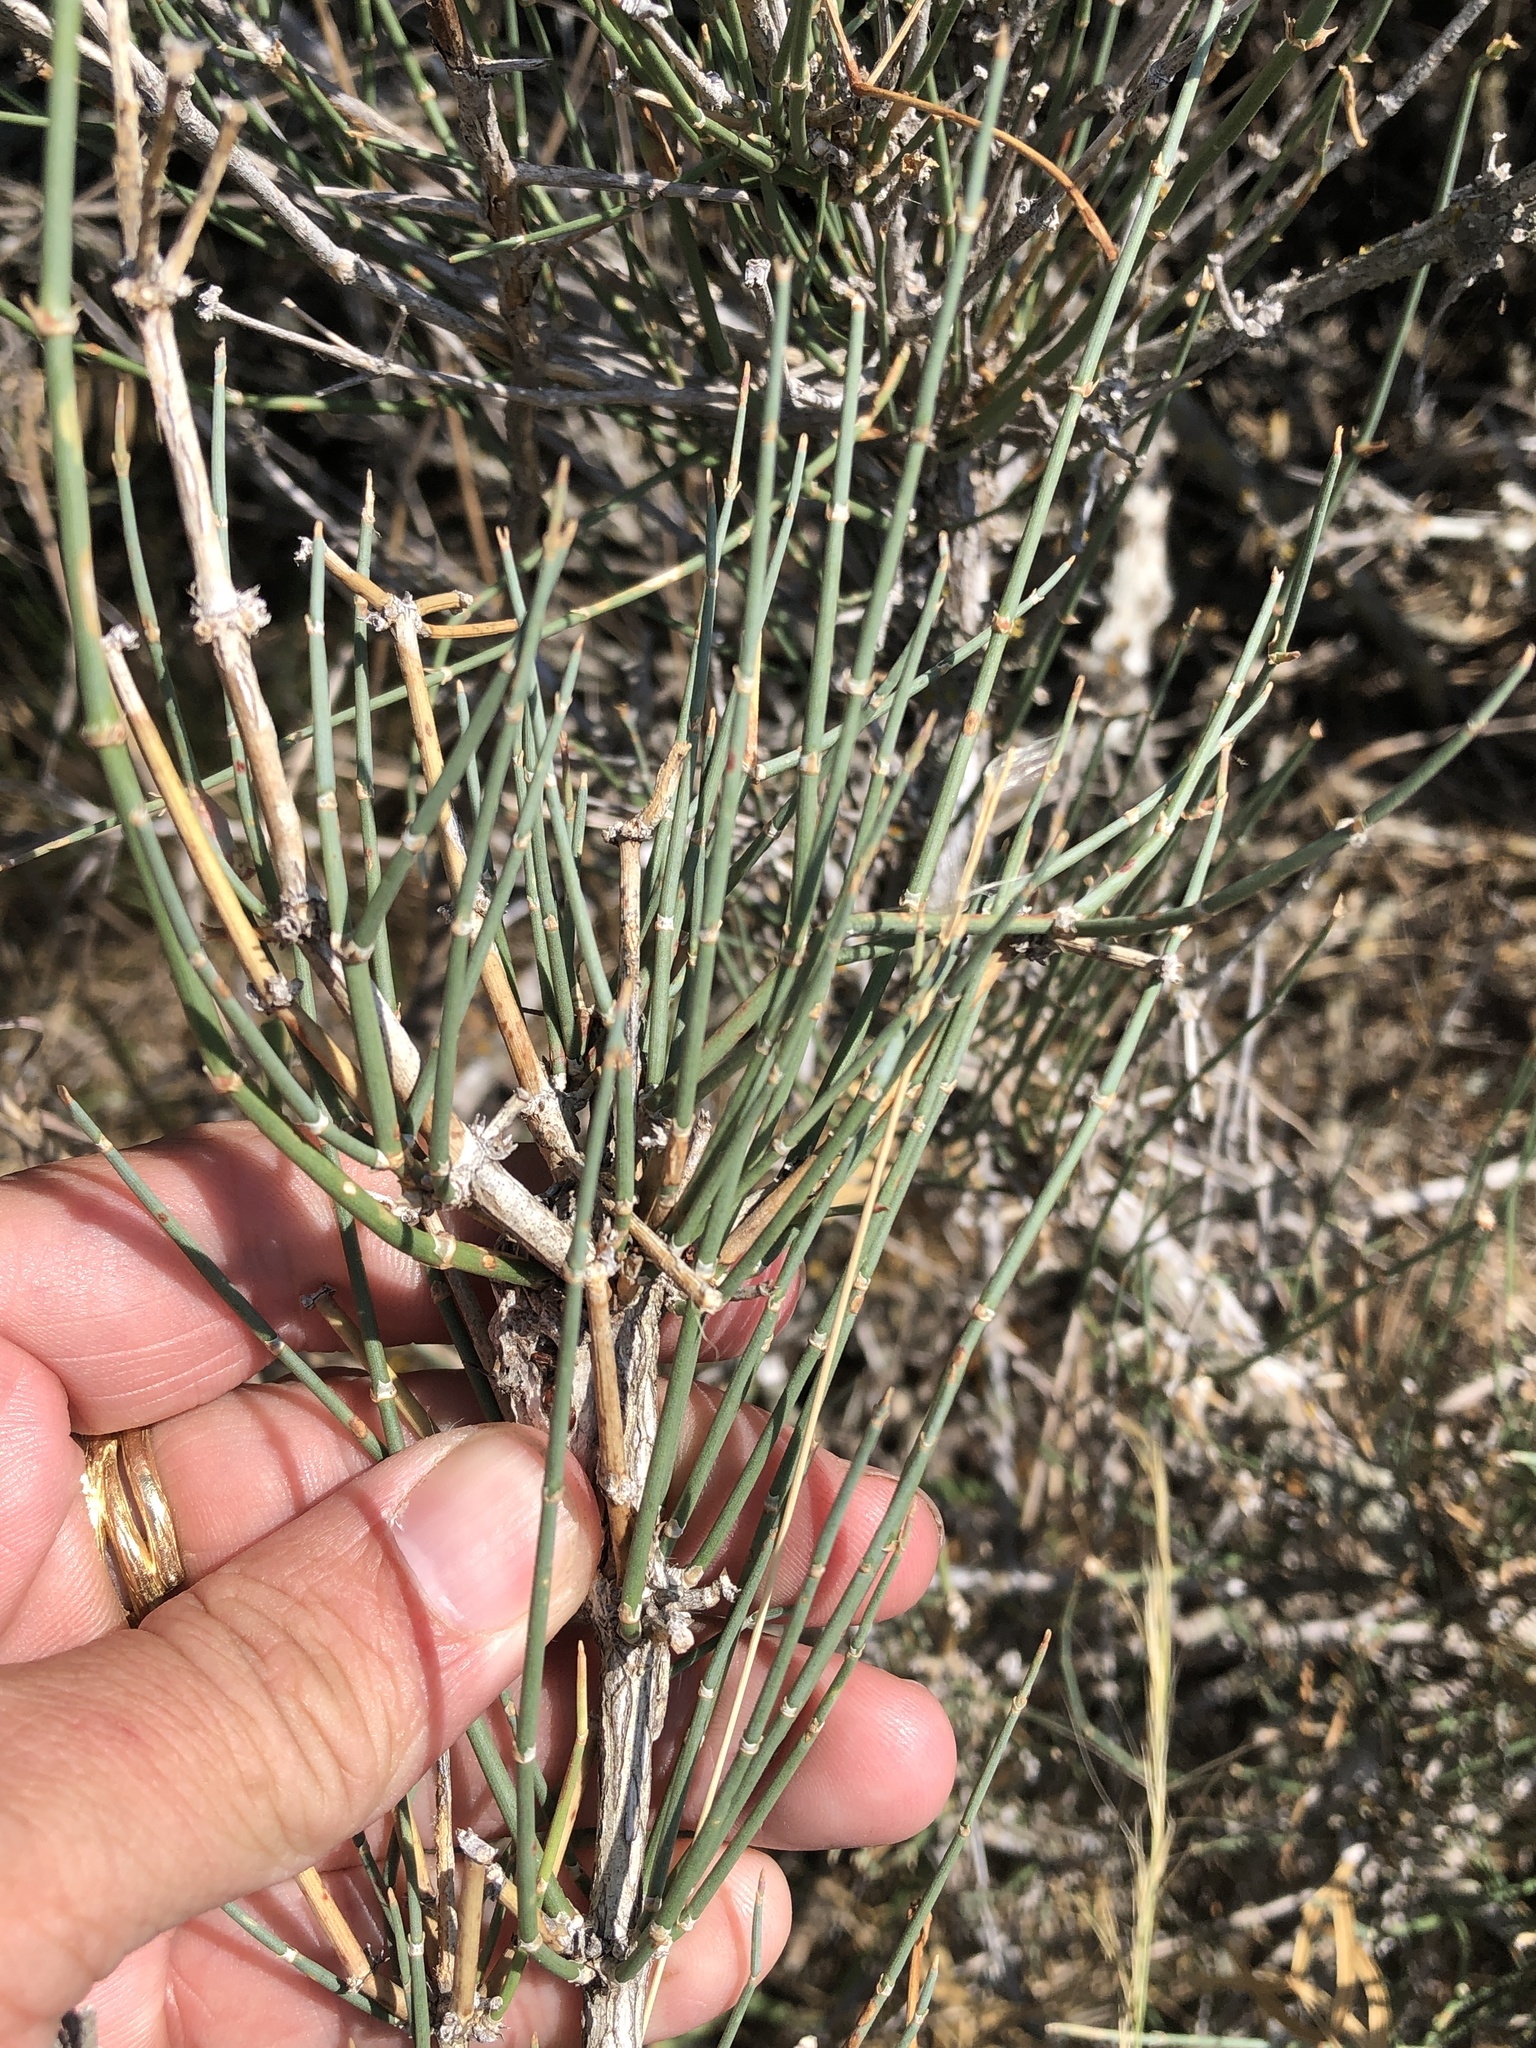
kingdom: Plantae
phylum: Tracheophyta
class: Gnetopsida
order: Ephedrales
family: Ephedraceae
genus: Ephedra
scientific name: Ephedra antisyphilitica
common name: Clipweed
